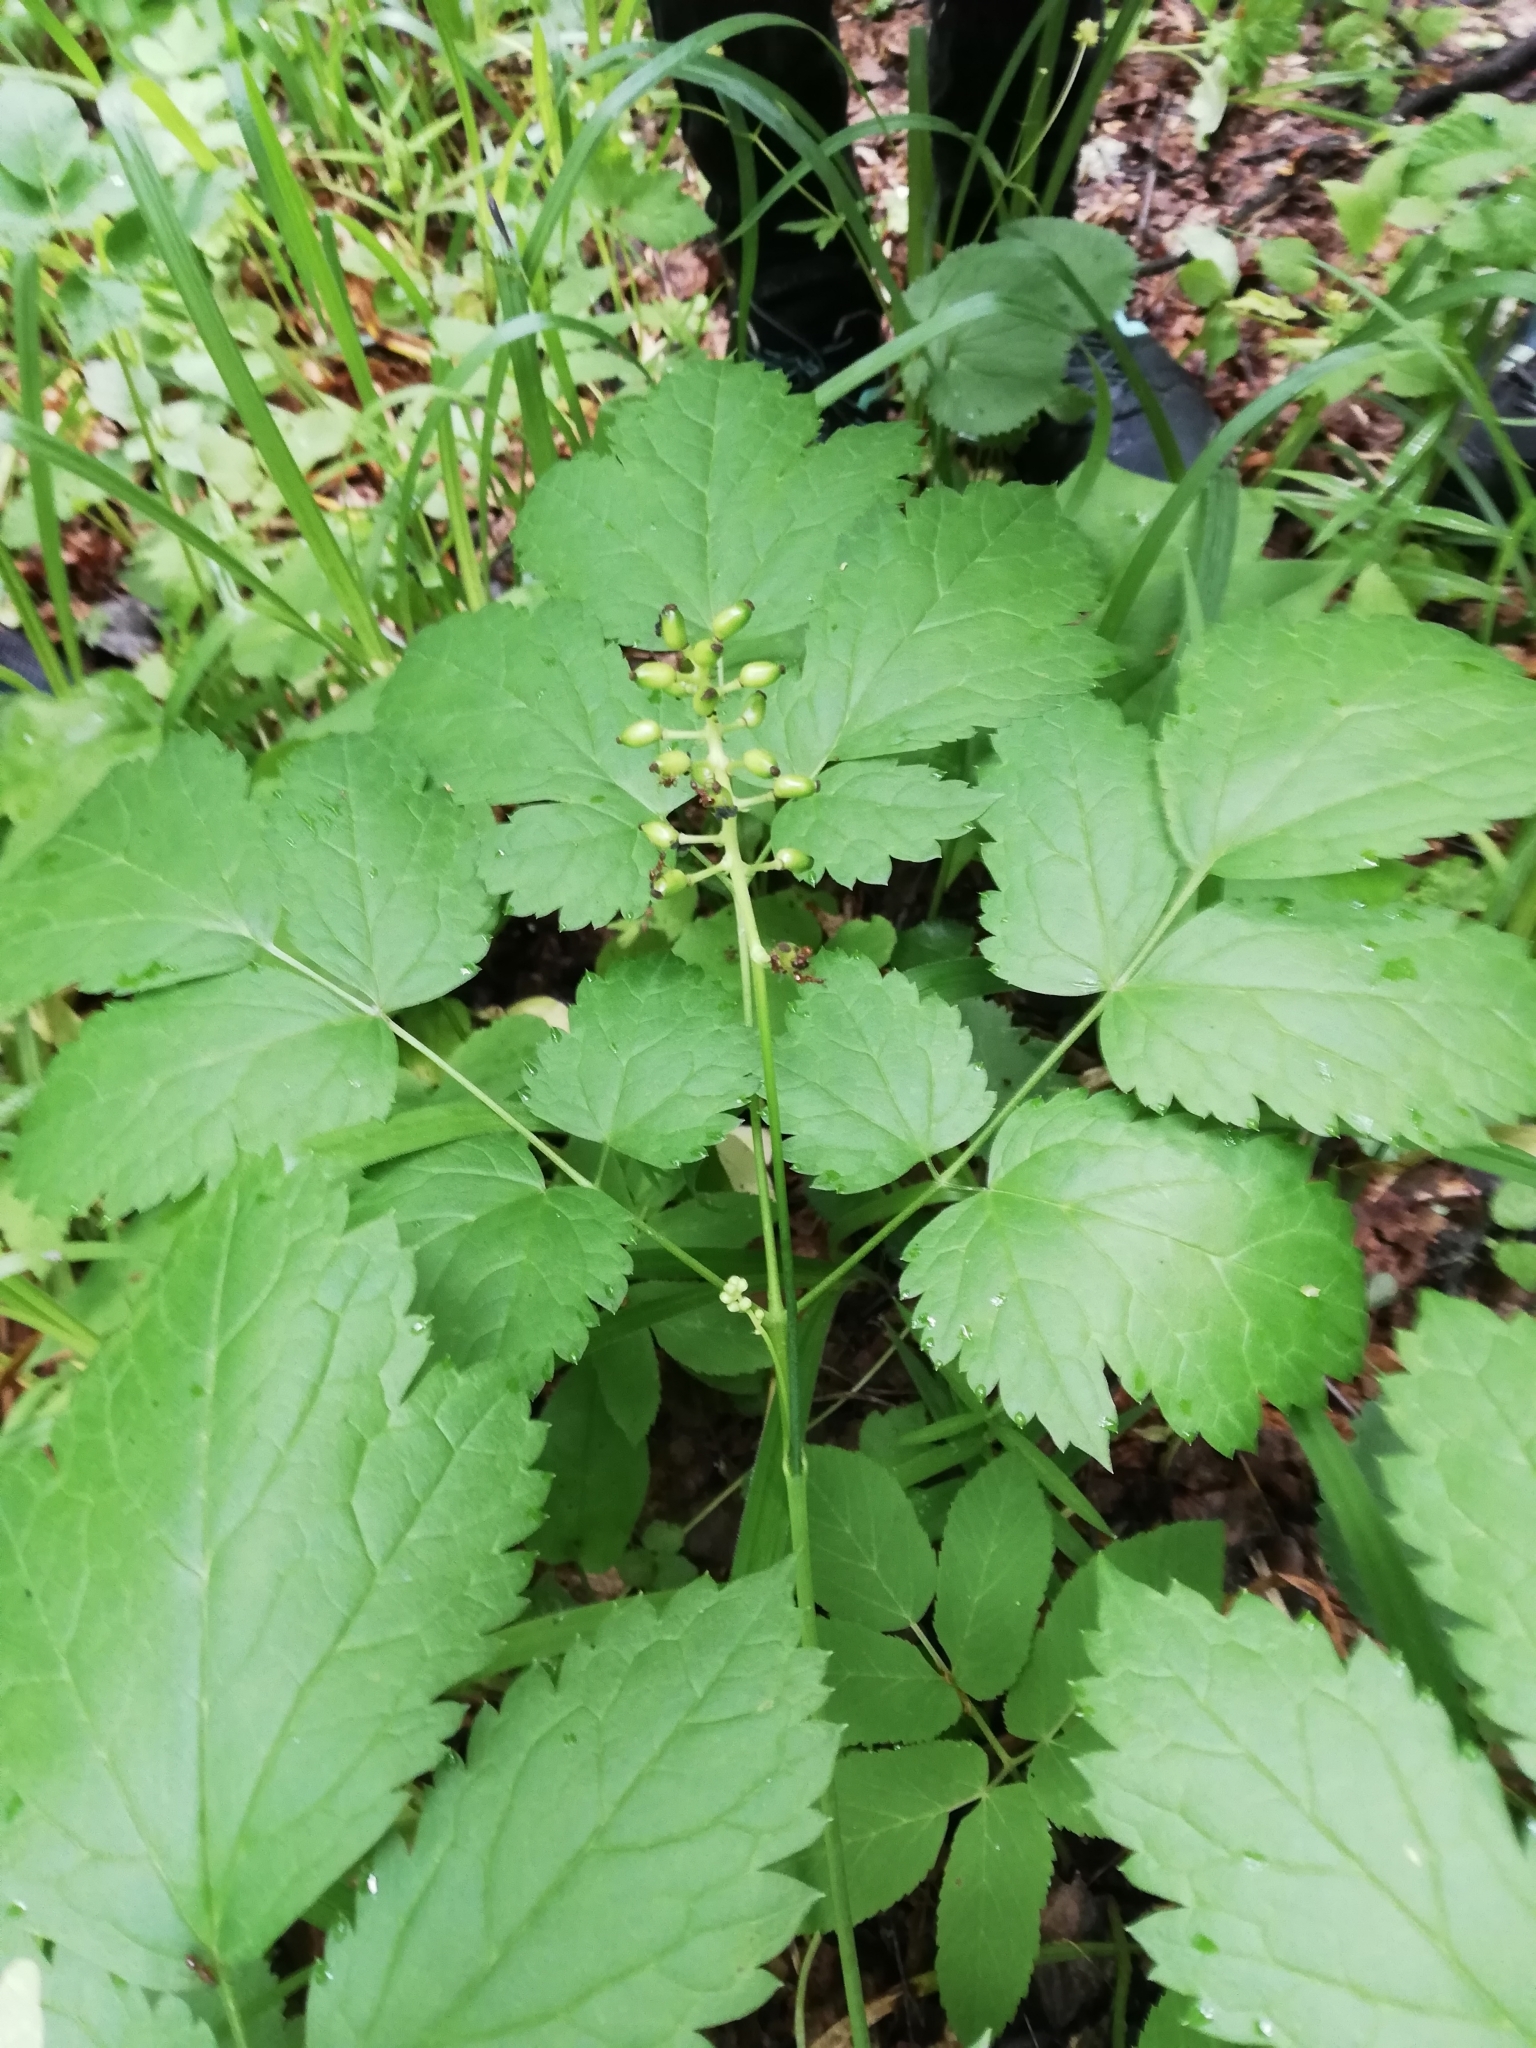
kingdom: Plantae
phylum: Tracheophyta
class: Magnoliopsida
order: Ranunculales
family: Ranunculaceae
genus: Actaea
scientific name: Actaea spicata
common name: Baneberry
